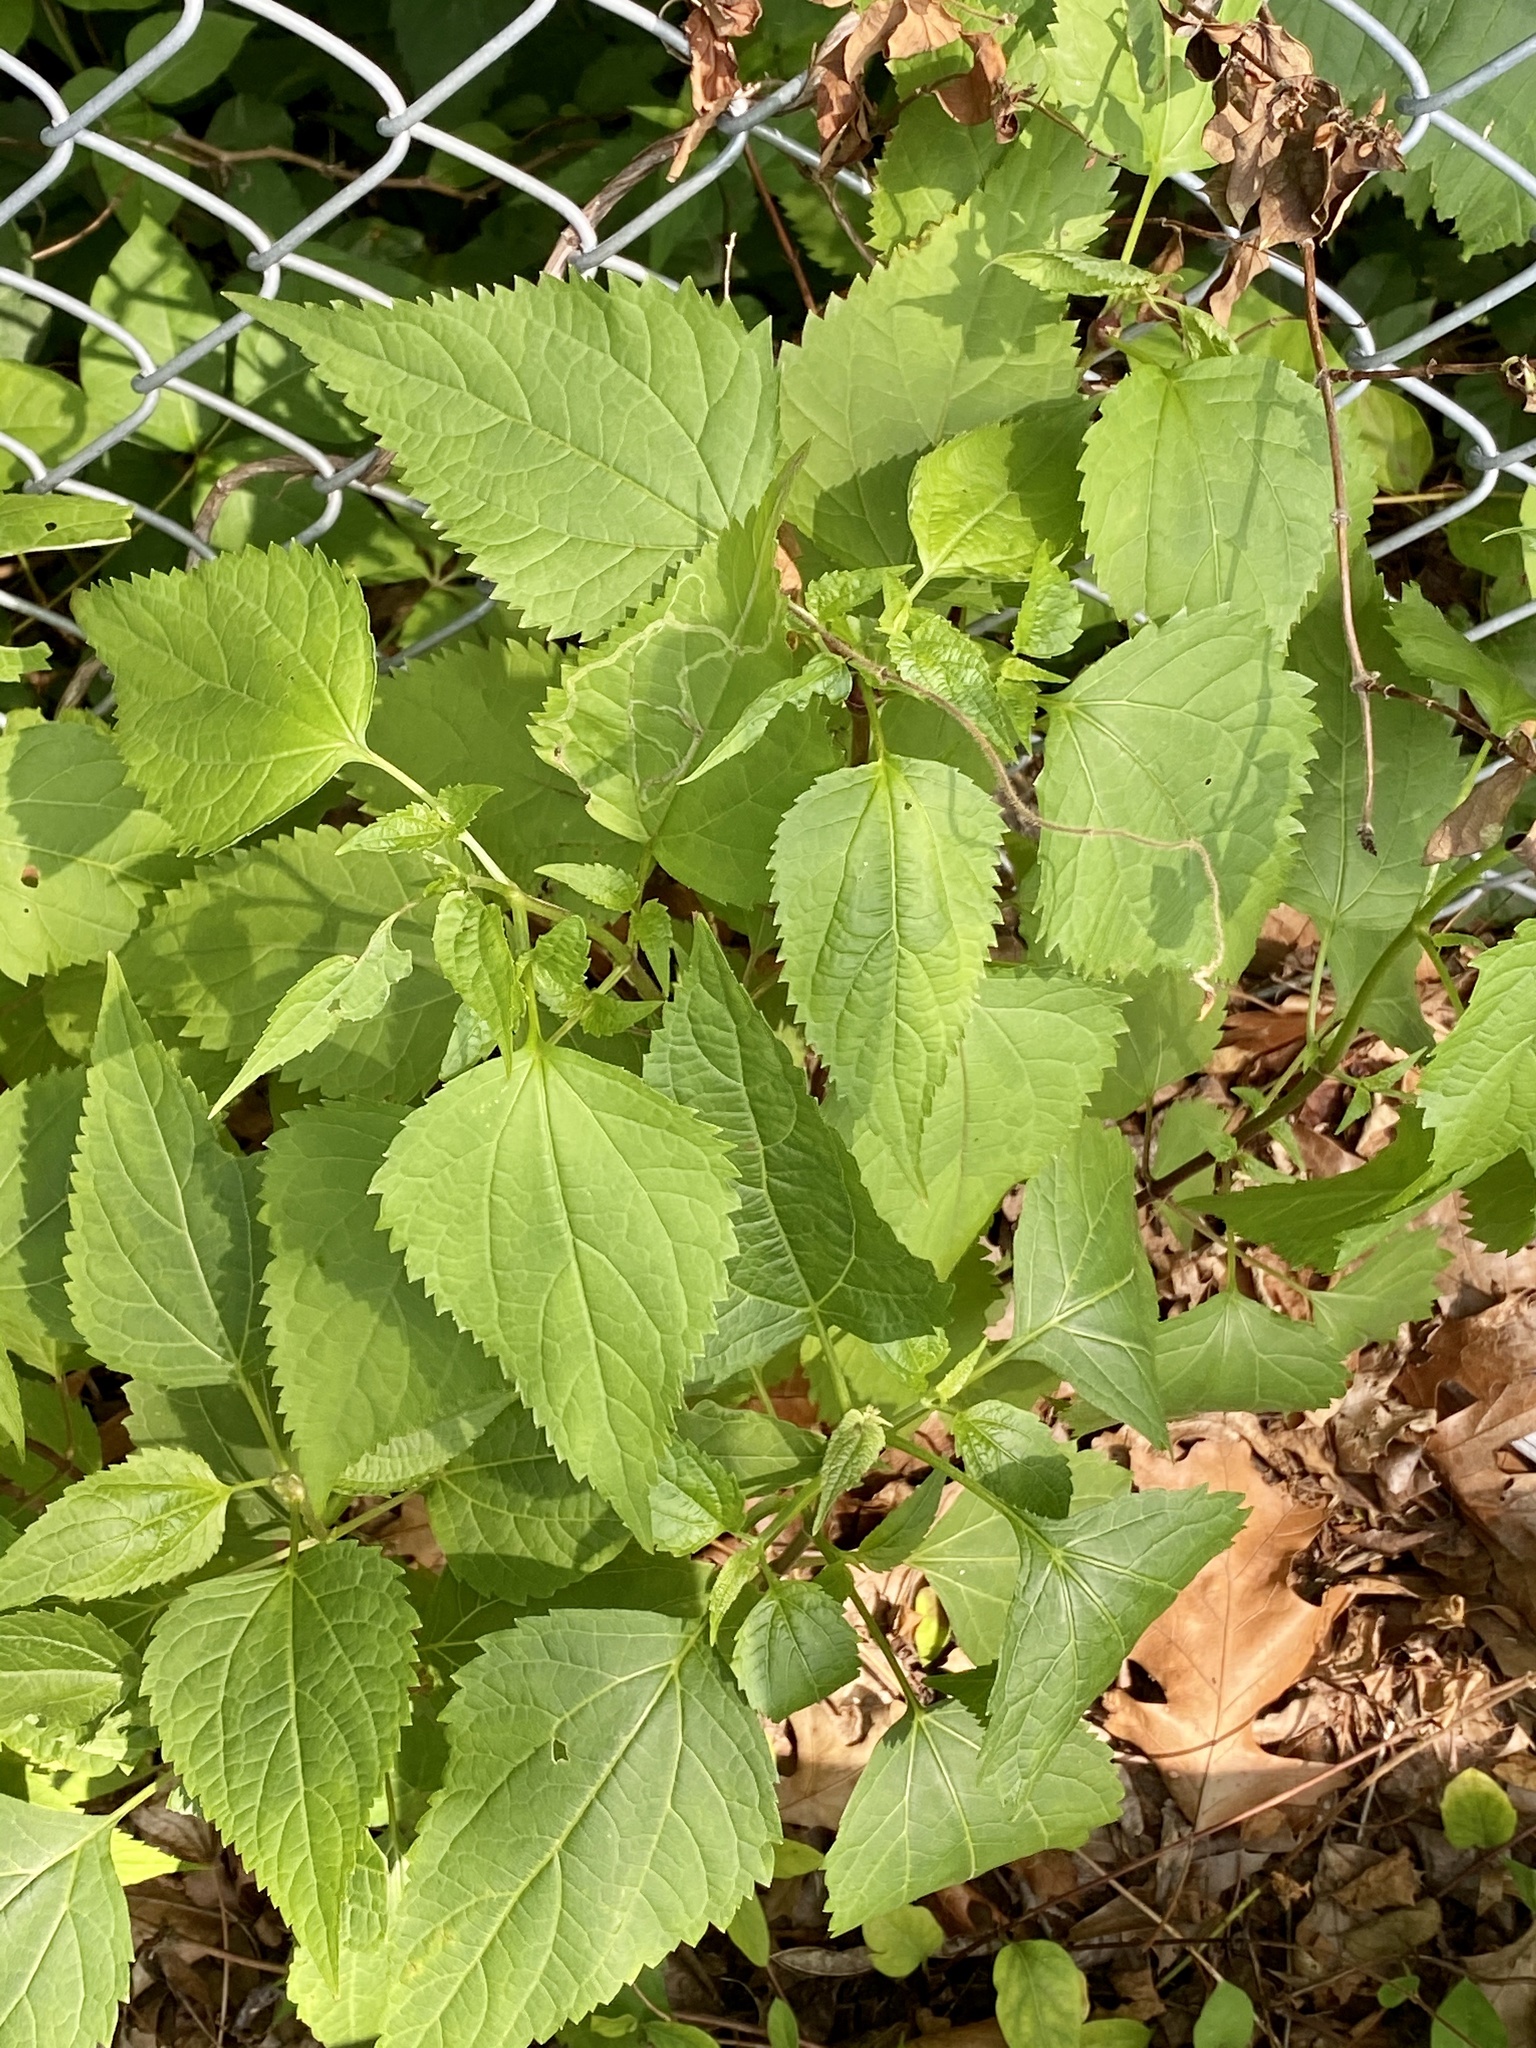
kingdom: Plantae
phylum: Tracheophyta
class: Magnoliopsida
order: Asterales
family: Asteraceae
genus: Ageratina
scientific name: Ageratina altissima
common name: White snakeroot
